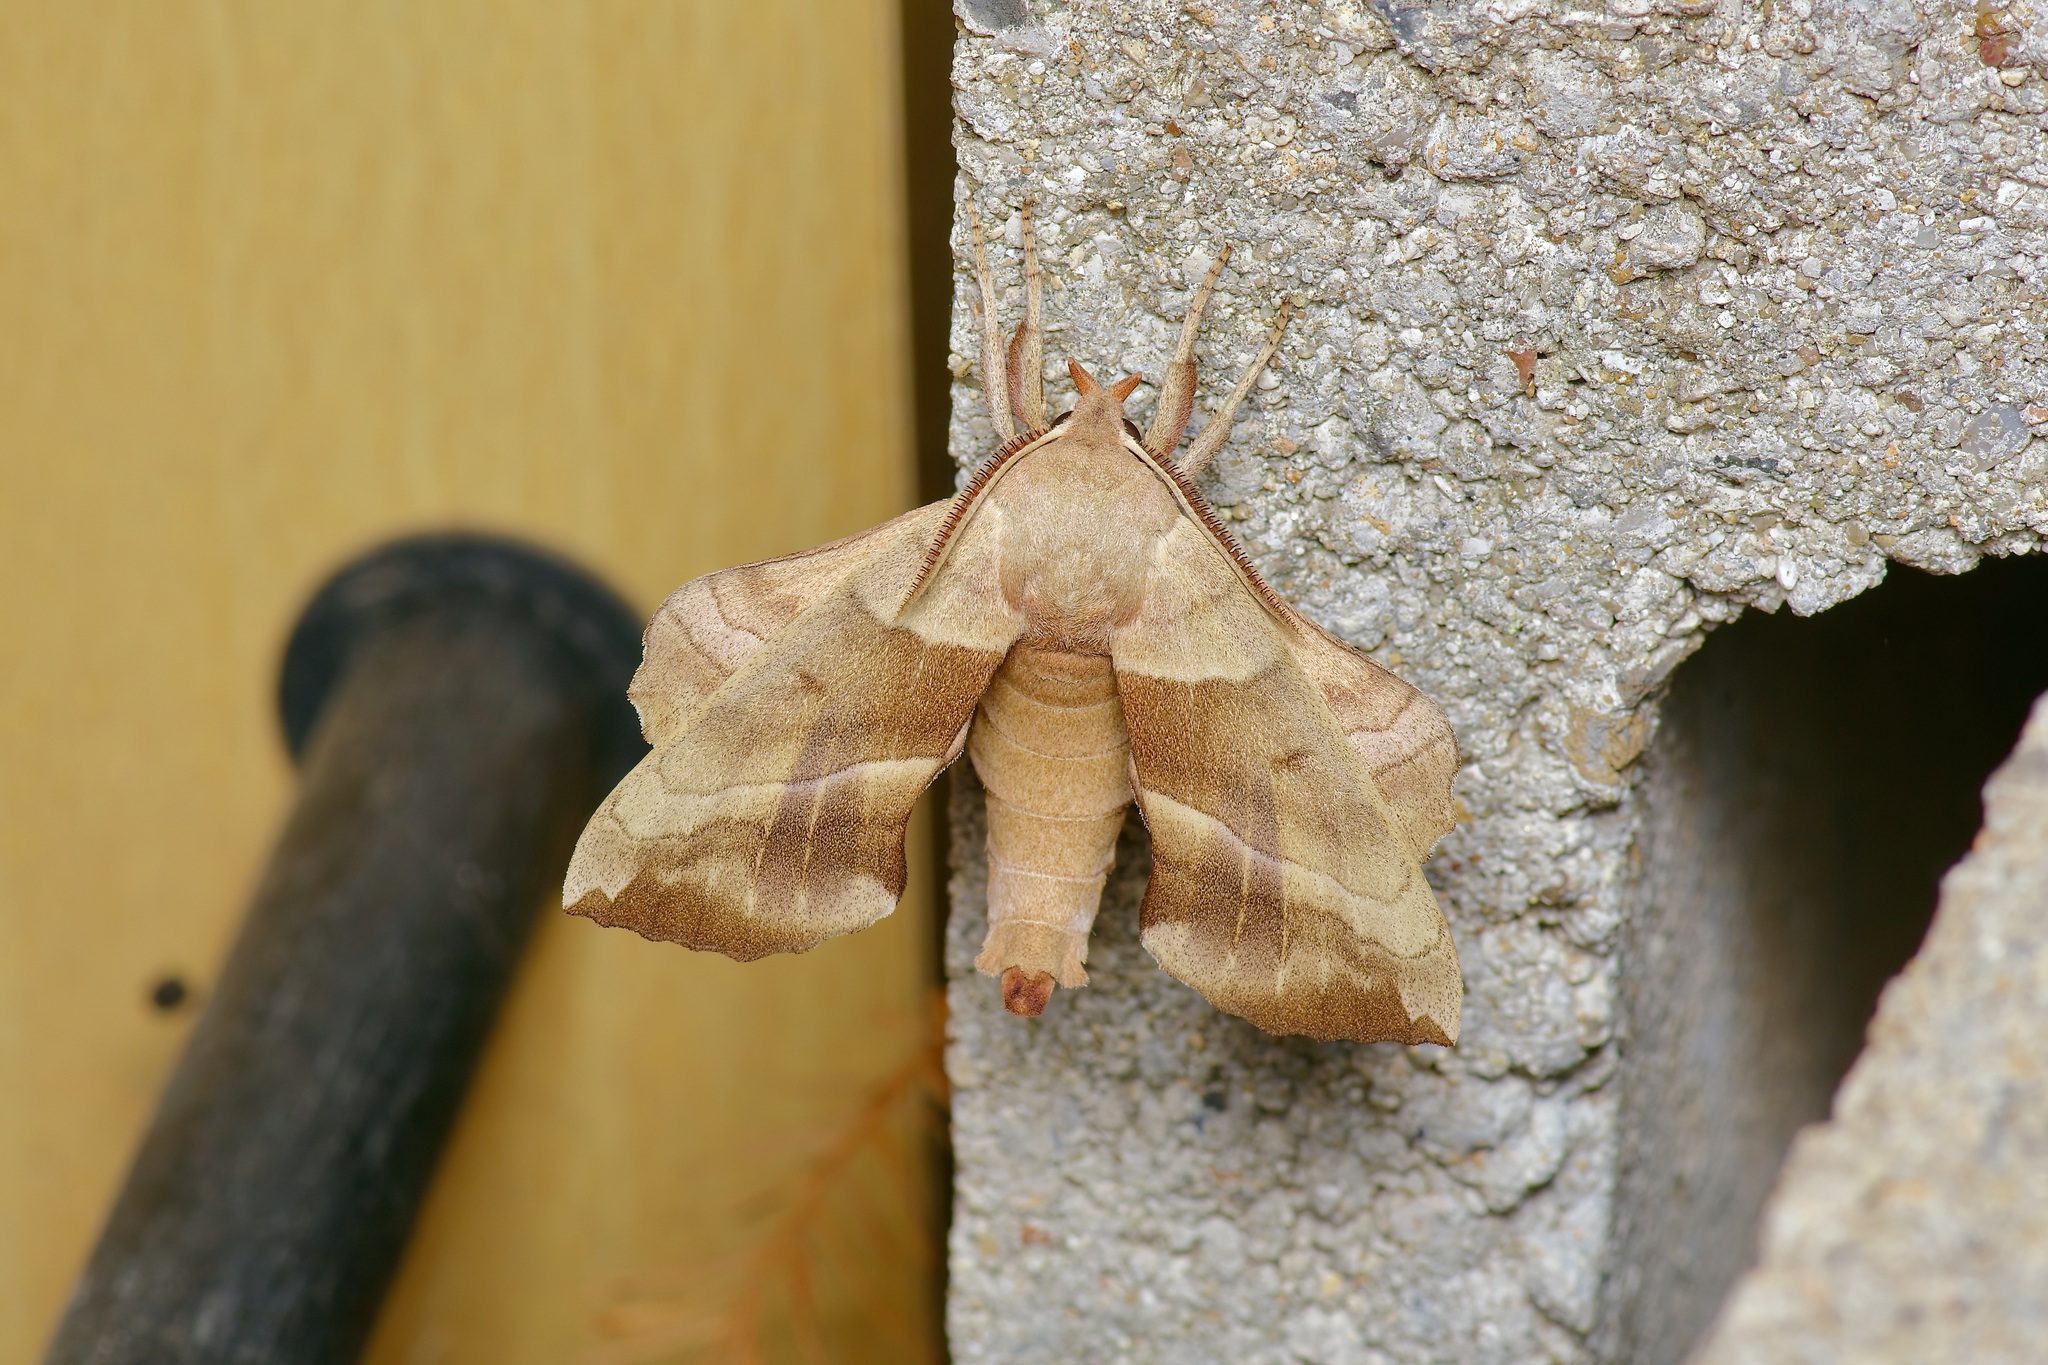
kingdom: Animalia
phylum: Arthropoda
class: Insecta
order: Lepidoptera
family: Sphingidae
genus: Amorpha
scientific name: Amorpha juglandis
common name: Walnut sphinx
